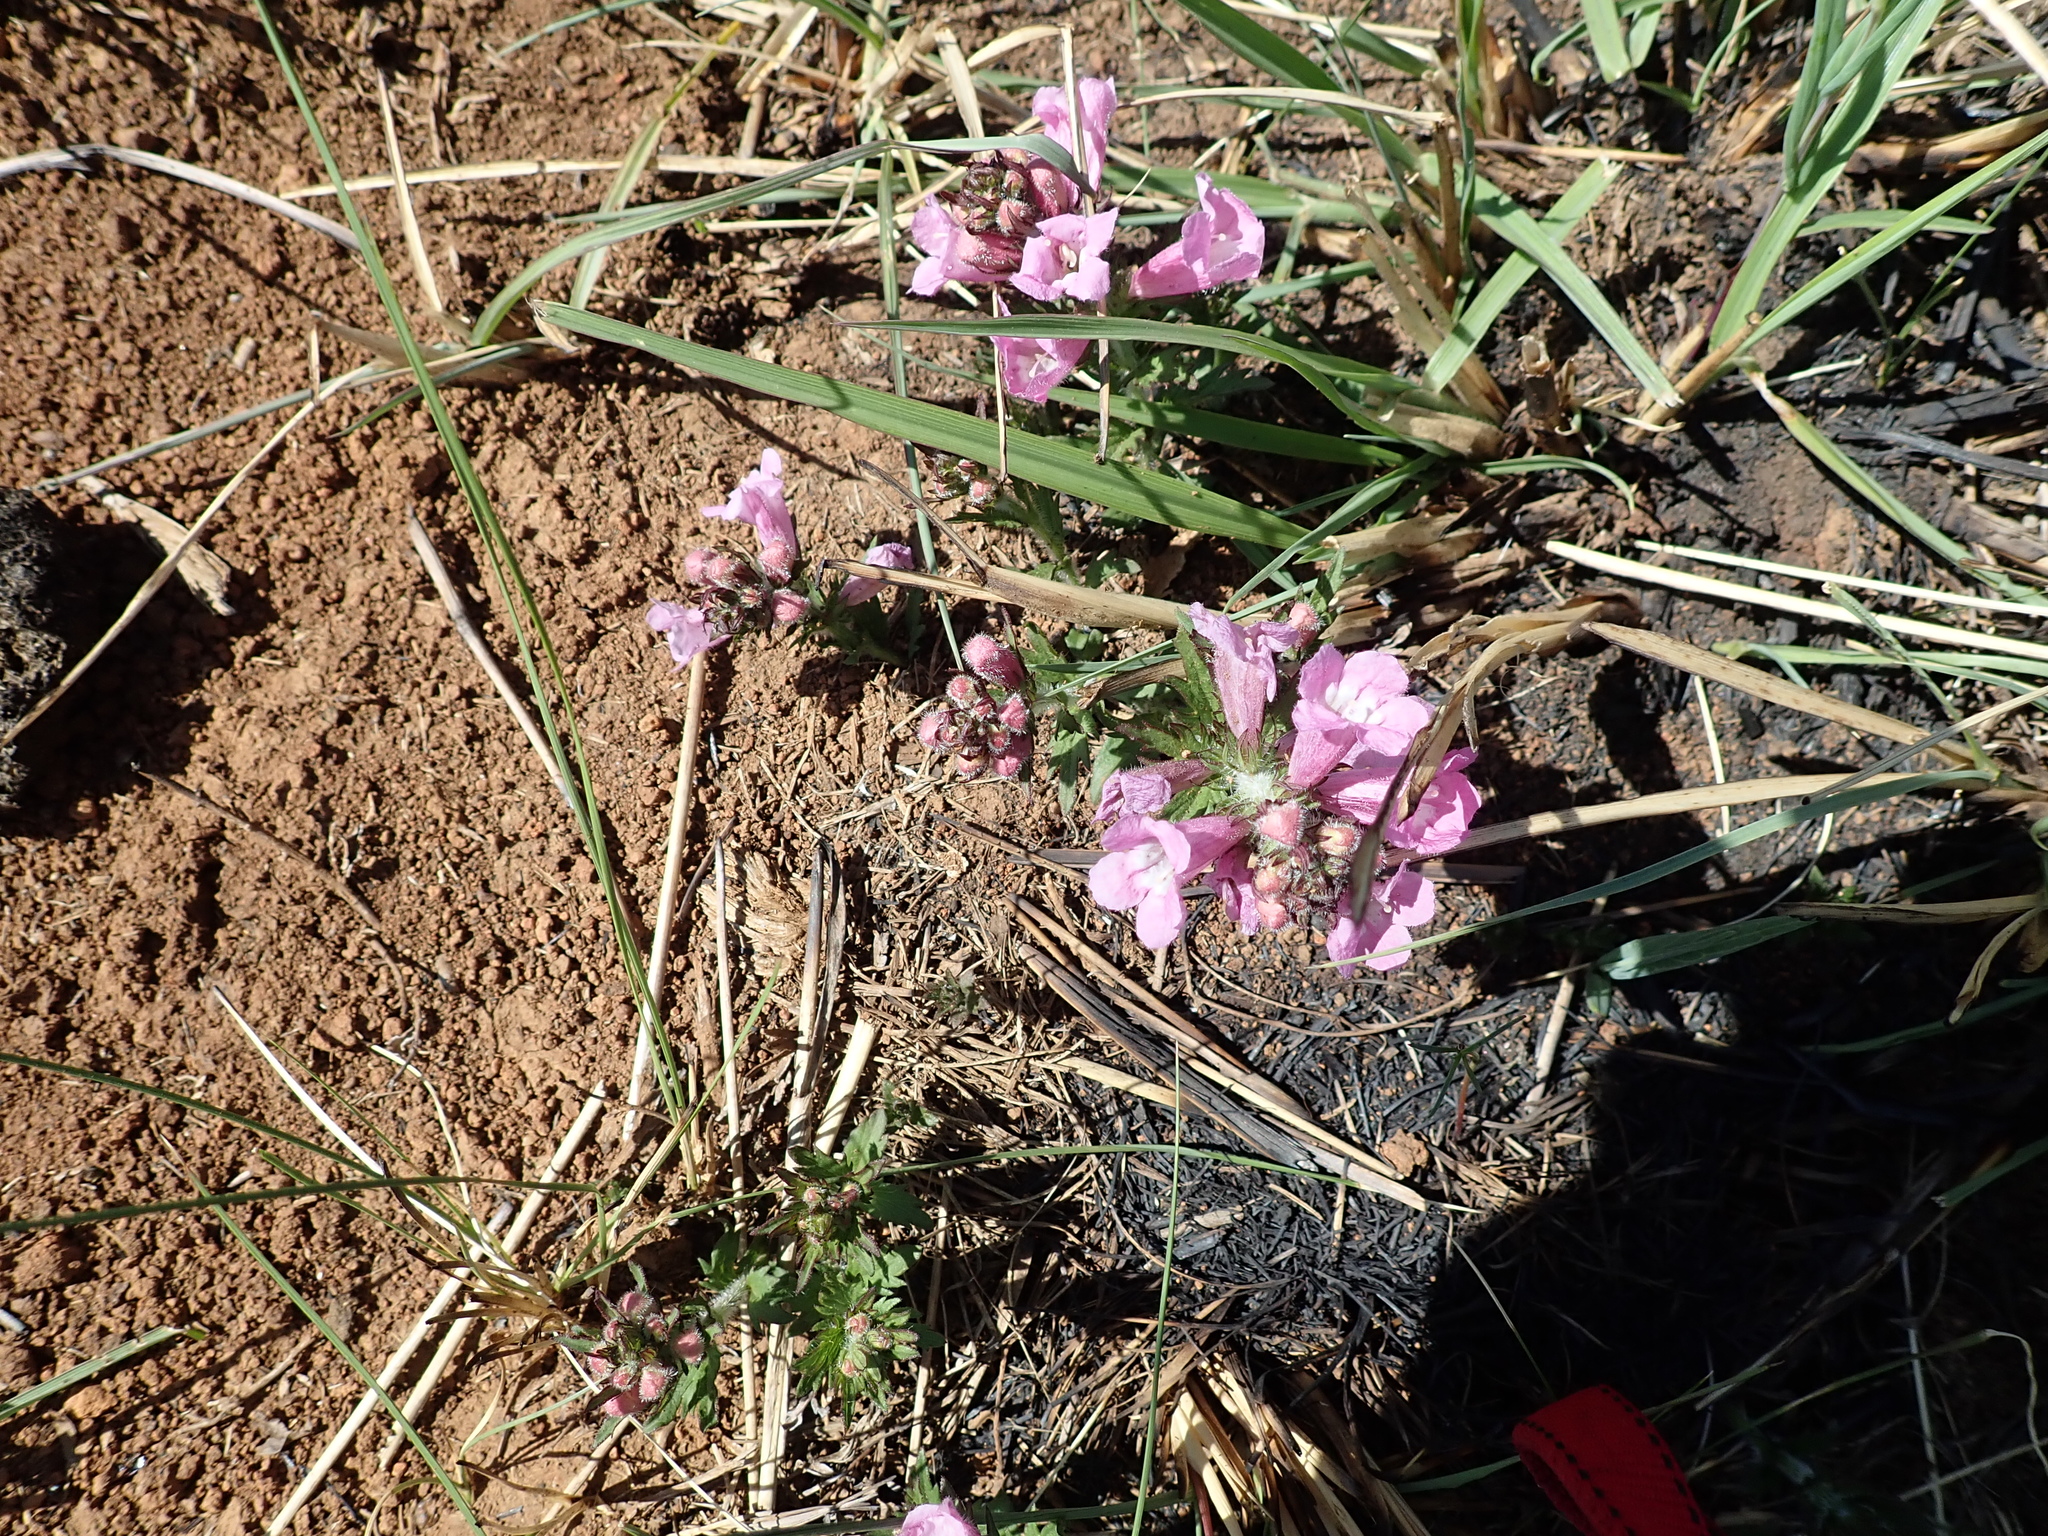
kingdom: Plantae
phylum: Tracheophyta
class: Magnoliopsida
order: Lamiales
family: Orobanchaceae
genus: Graderia
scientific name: Graderia scabra
